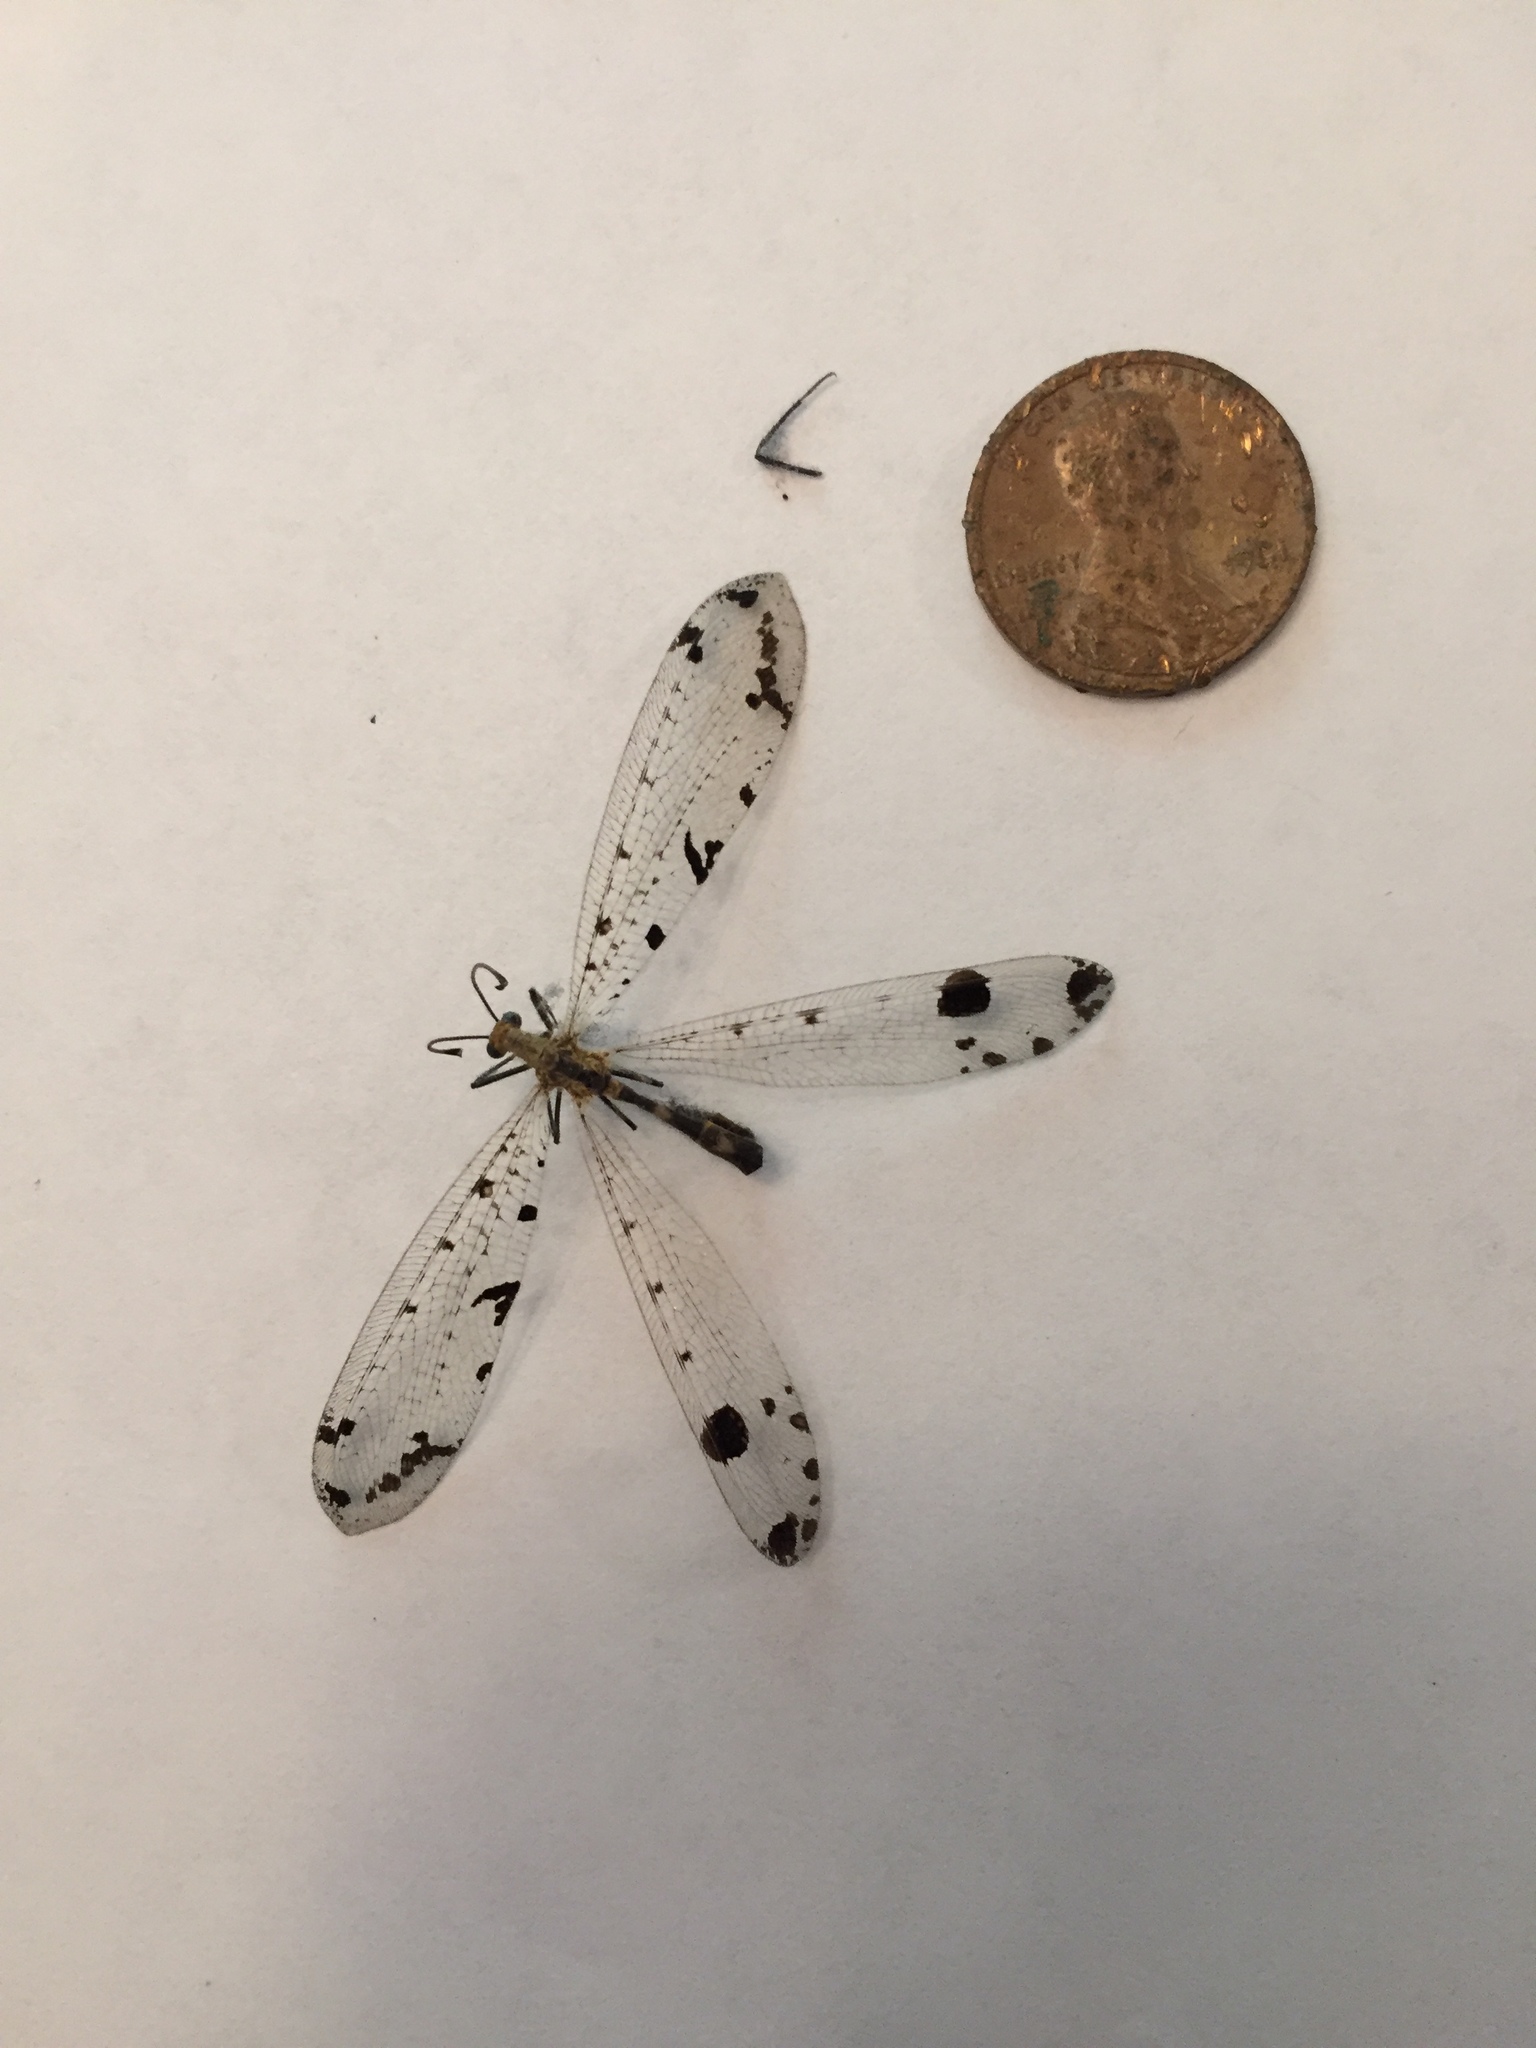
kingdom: Animalia
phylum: Arthropoda
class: Insecta
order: Neuroptera
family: Myrmeleontidae
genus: Dendroleon
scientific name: Dendroleon obsoletus
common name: Eastern spotted-winged antlion
